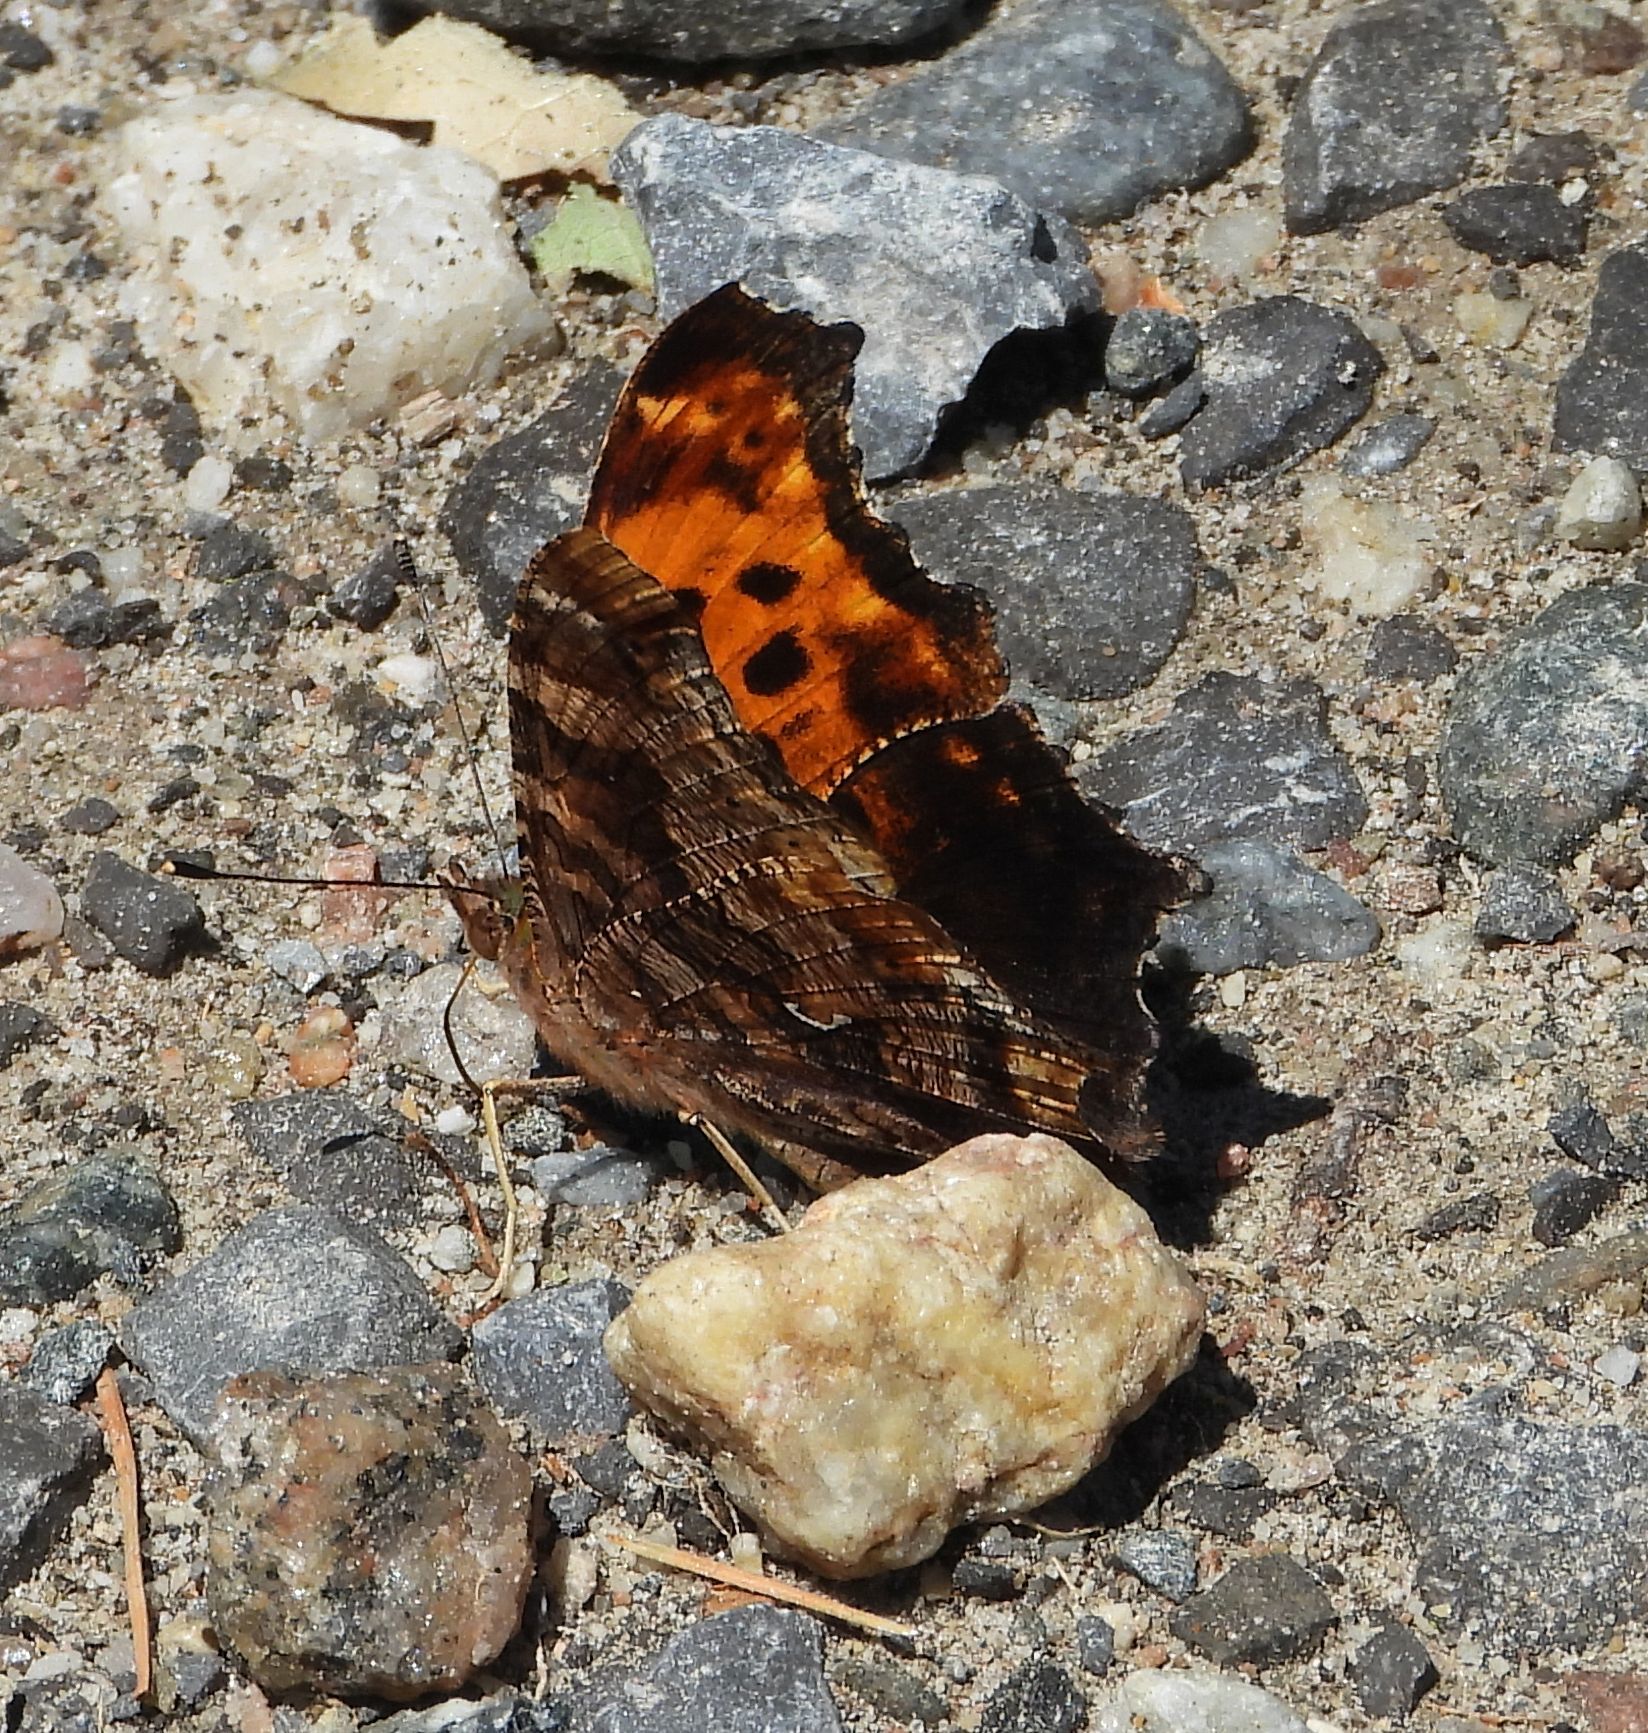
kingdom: Animalia
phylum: Arthropoda
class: Insecta
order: Lepidoptera
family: Nymphalidae
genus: Polygonia
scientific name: Polygonia comma
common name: Eastern comma
